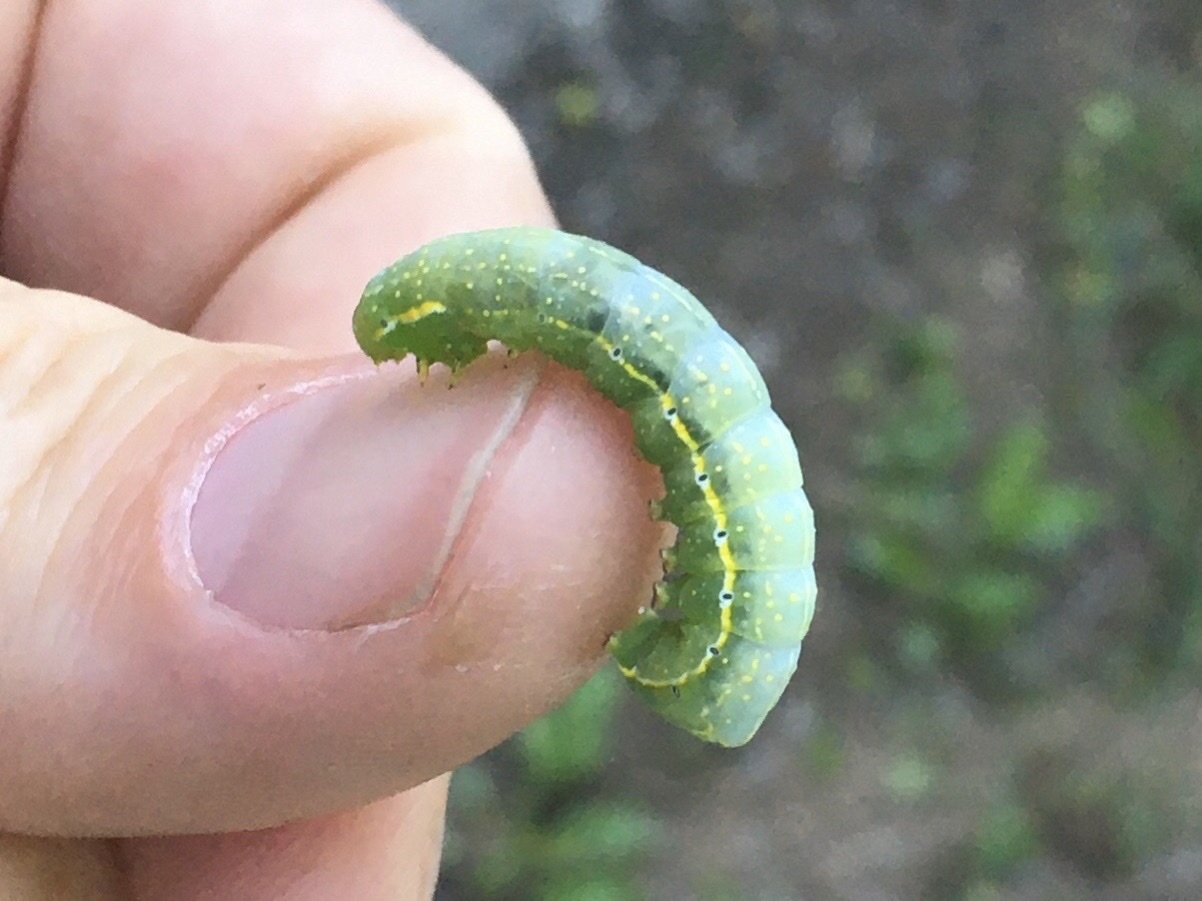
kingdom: Animalia
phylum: Arthropoda
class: Insecta
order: Lepidoptera
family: Noctuidae
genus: Amphipyra
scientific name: Amphipyra pyramidoides
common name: American copper underwing
